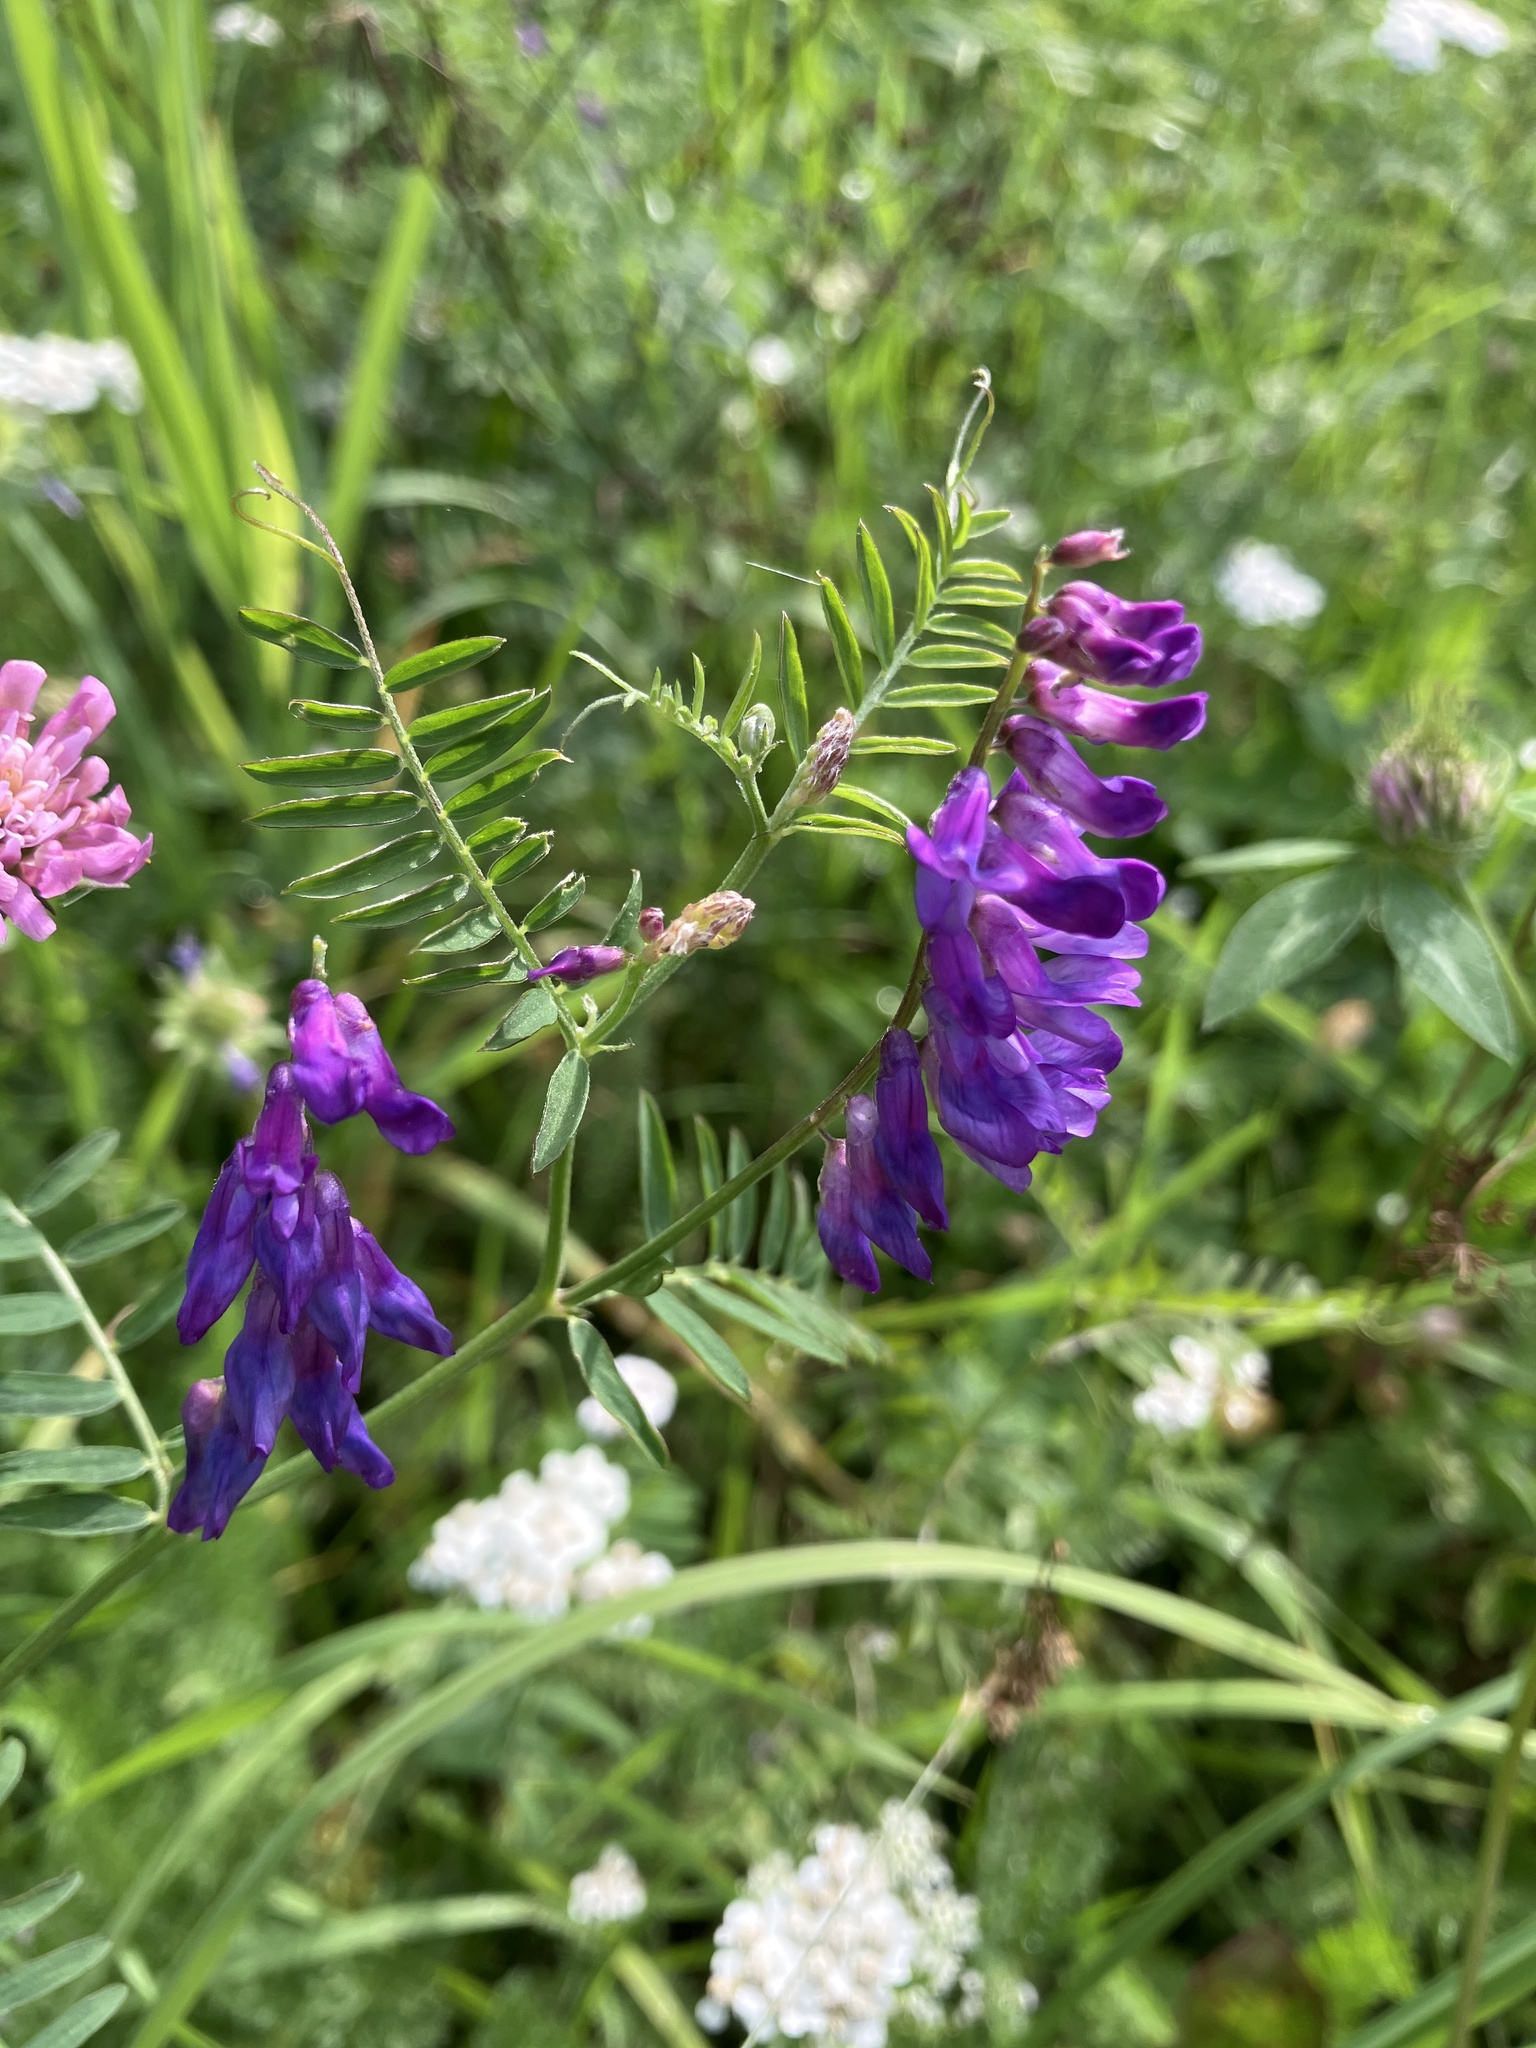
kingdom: Plantae
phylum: Tracheophyta
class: Magnoliopsida
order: Fabales
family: Fabaceae
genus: Vicia
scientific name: Vicia cracca
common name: Bird vetch
